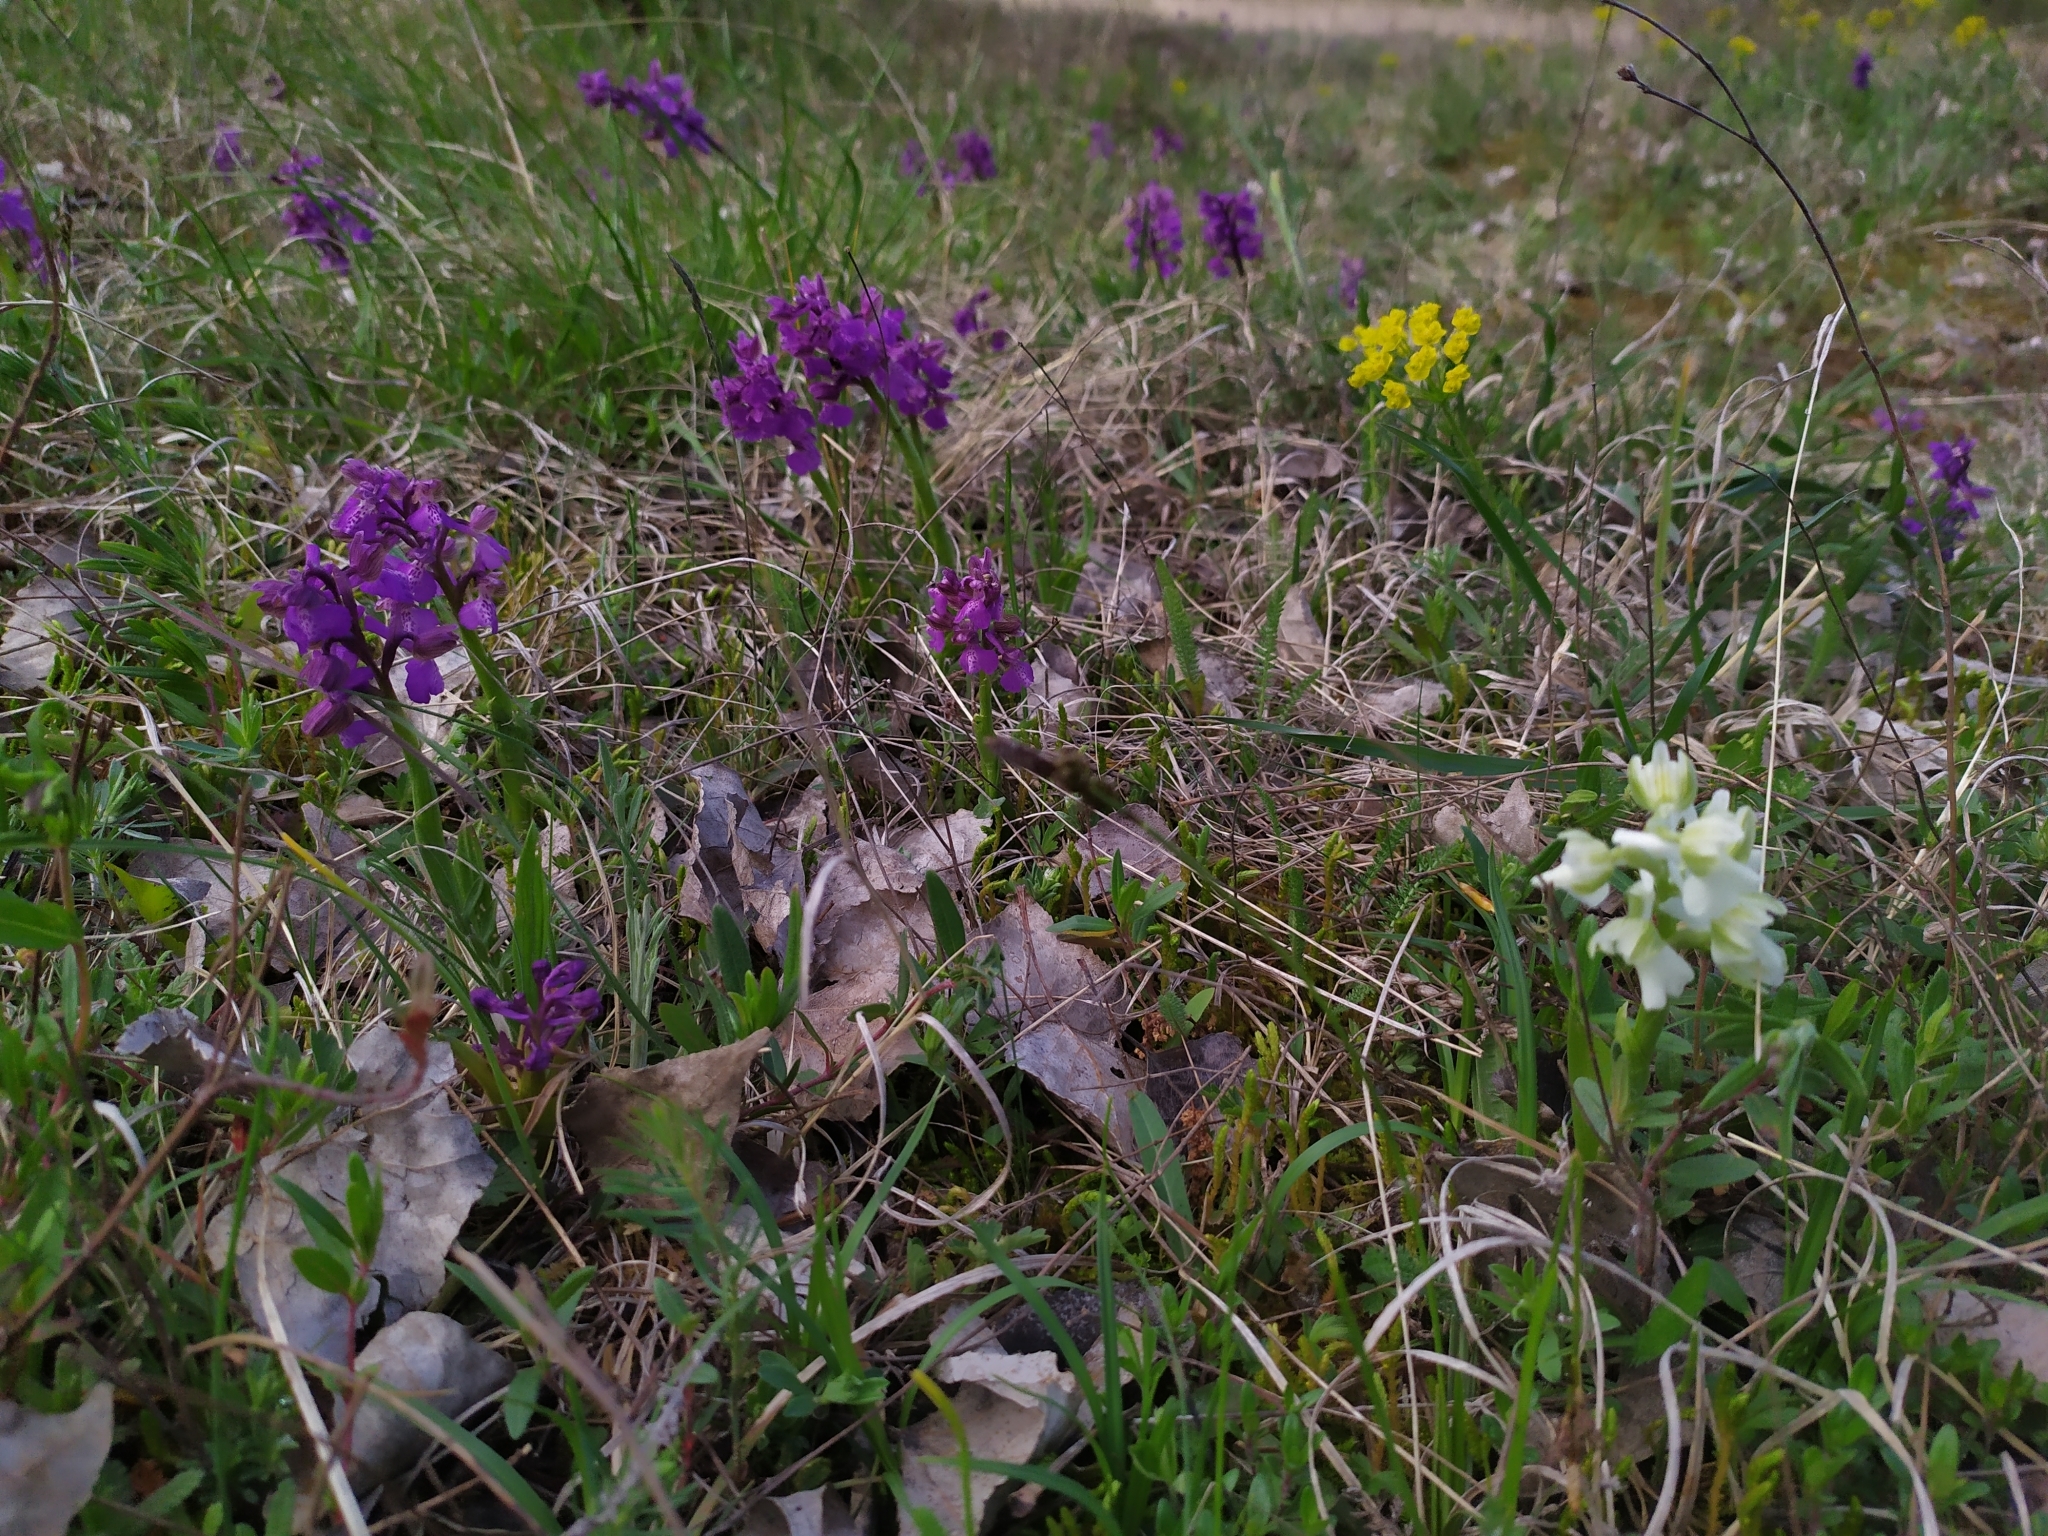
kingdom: Plantae
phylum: Tracheophyta
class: Liliopsida
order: Asparagales
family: Orchidaceae
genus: Anacamptis
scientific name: Anacamptis morio
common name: Green-winged orchid
